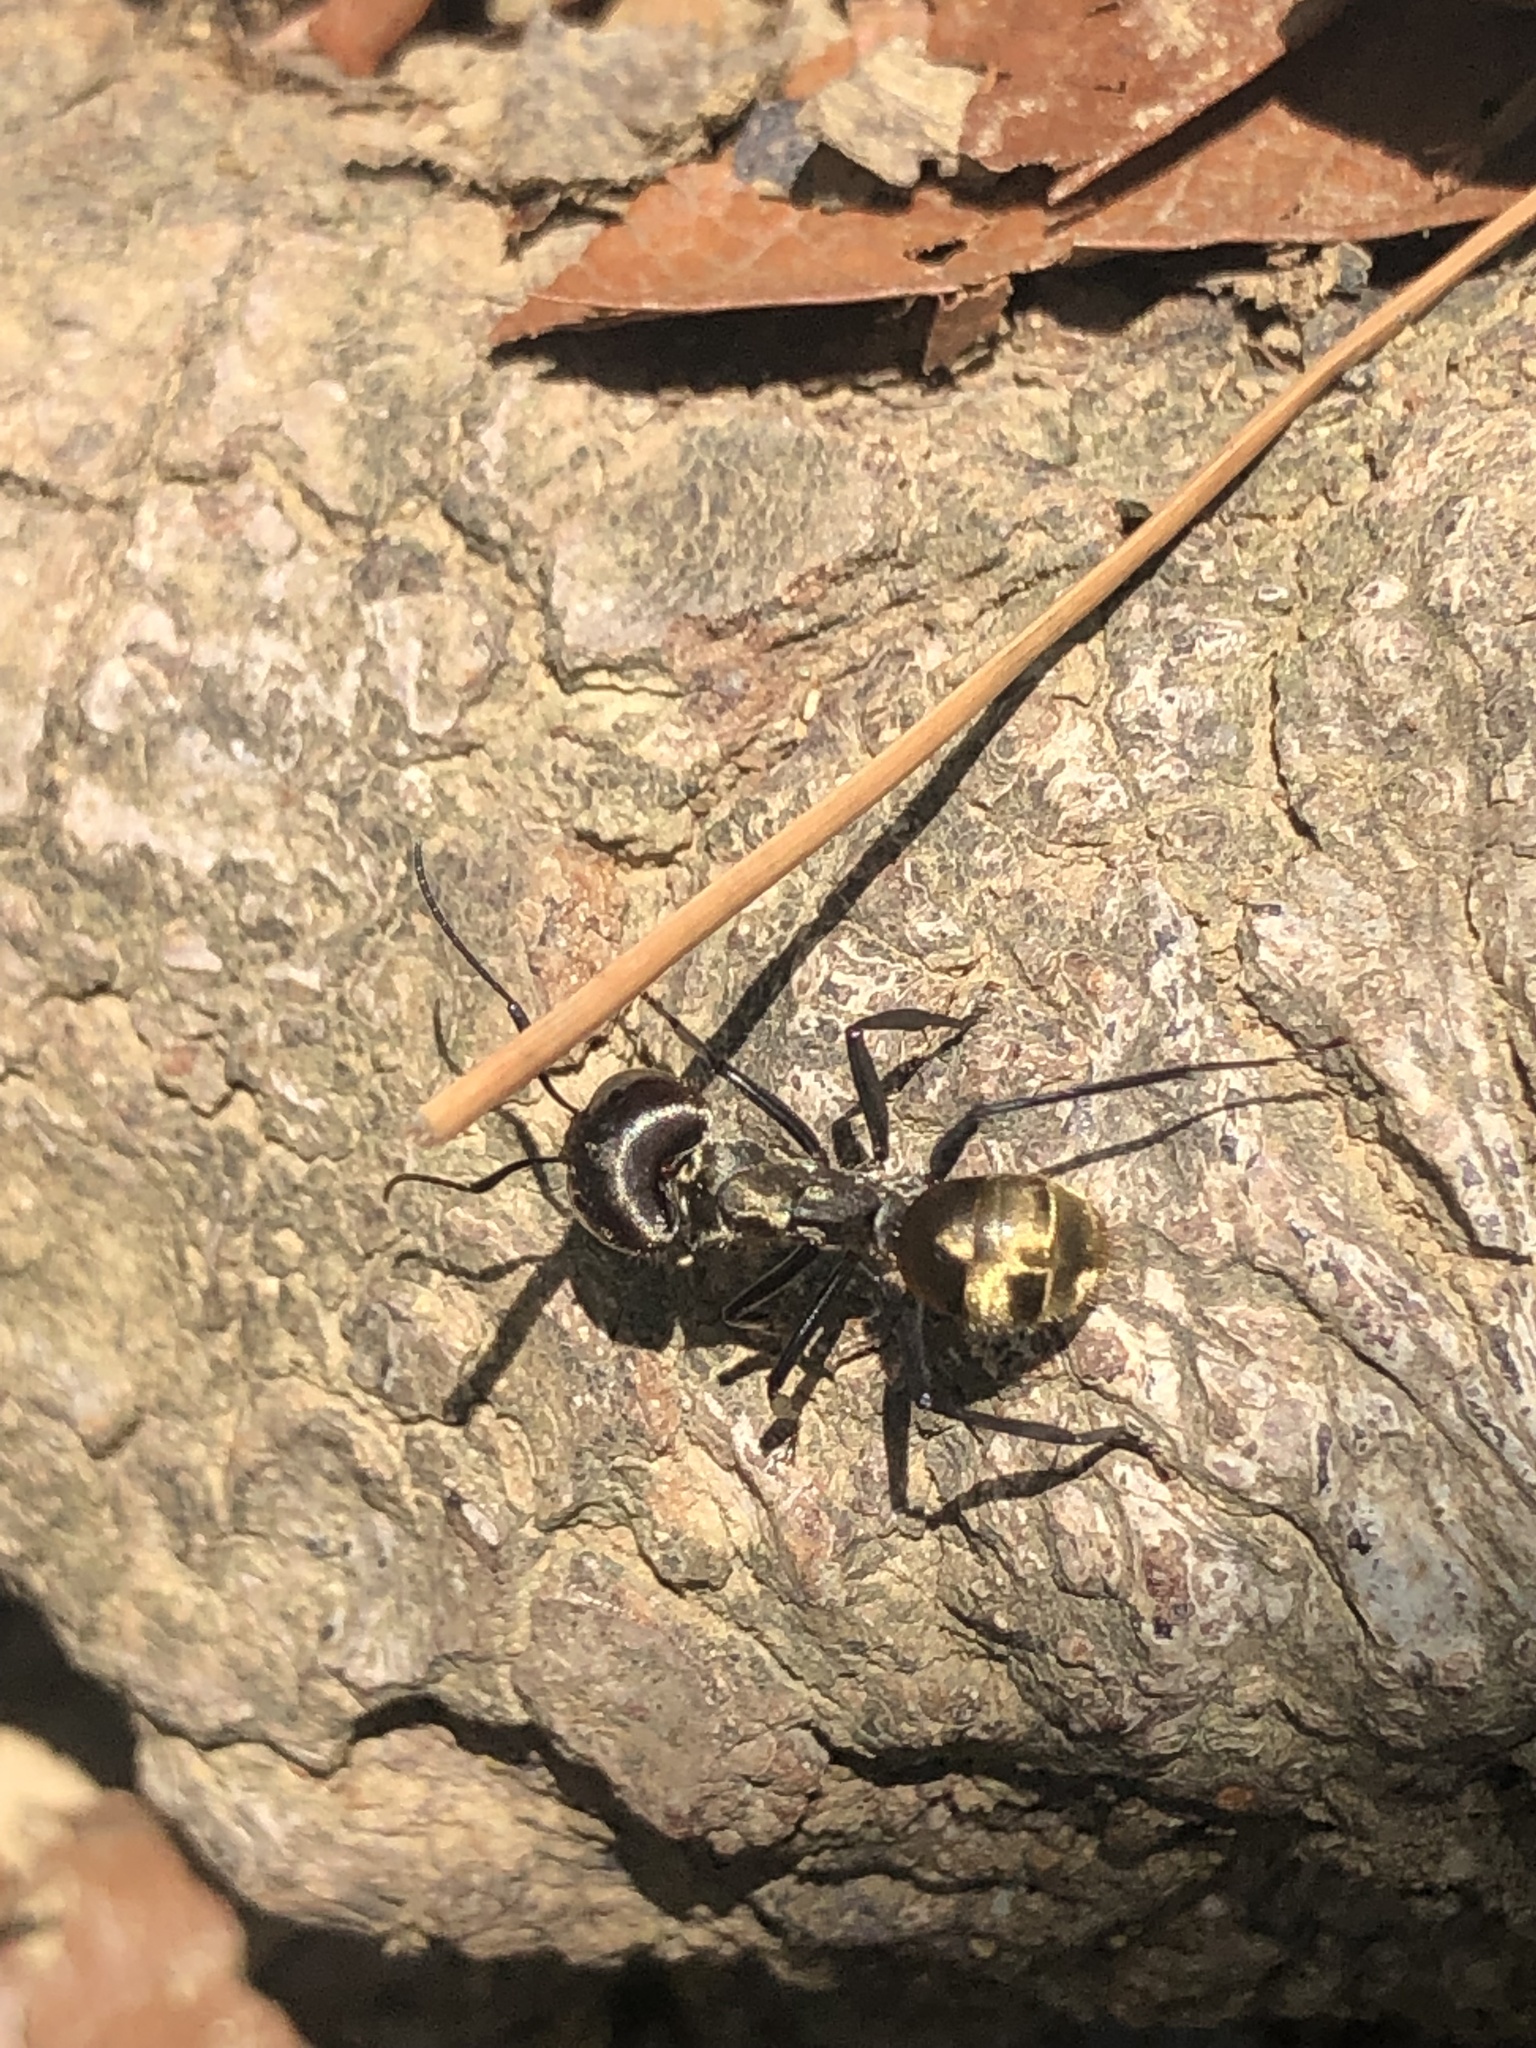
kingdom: Animalia
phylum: Arthropoda
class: Insecta
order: Hymenoptera
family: Formicidae
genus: Camponotus
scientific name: Camponotus sericeiventris
